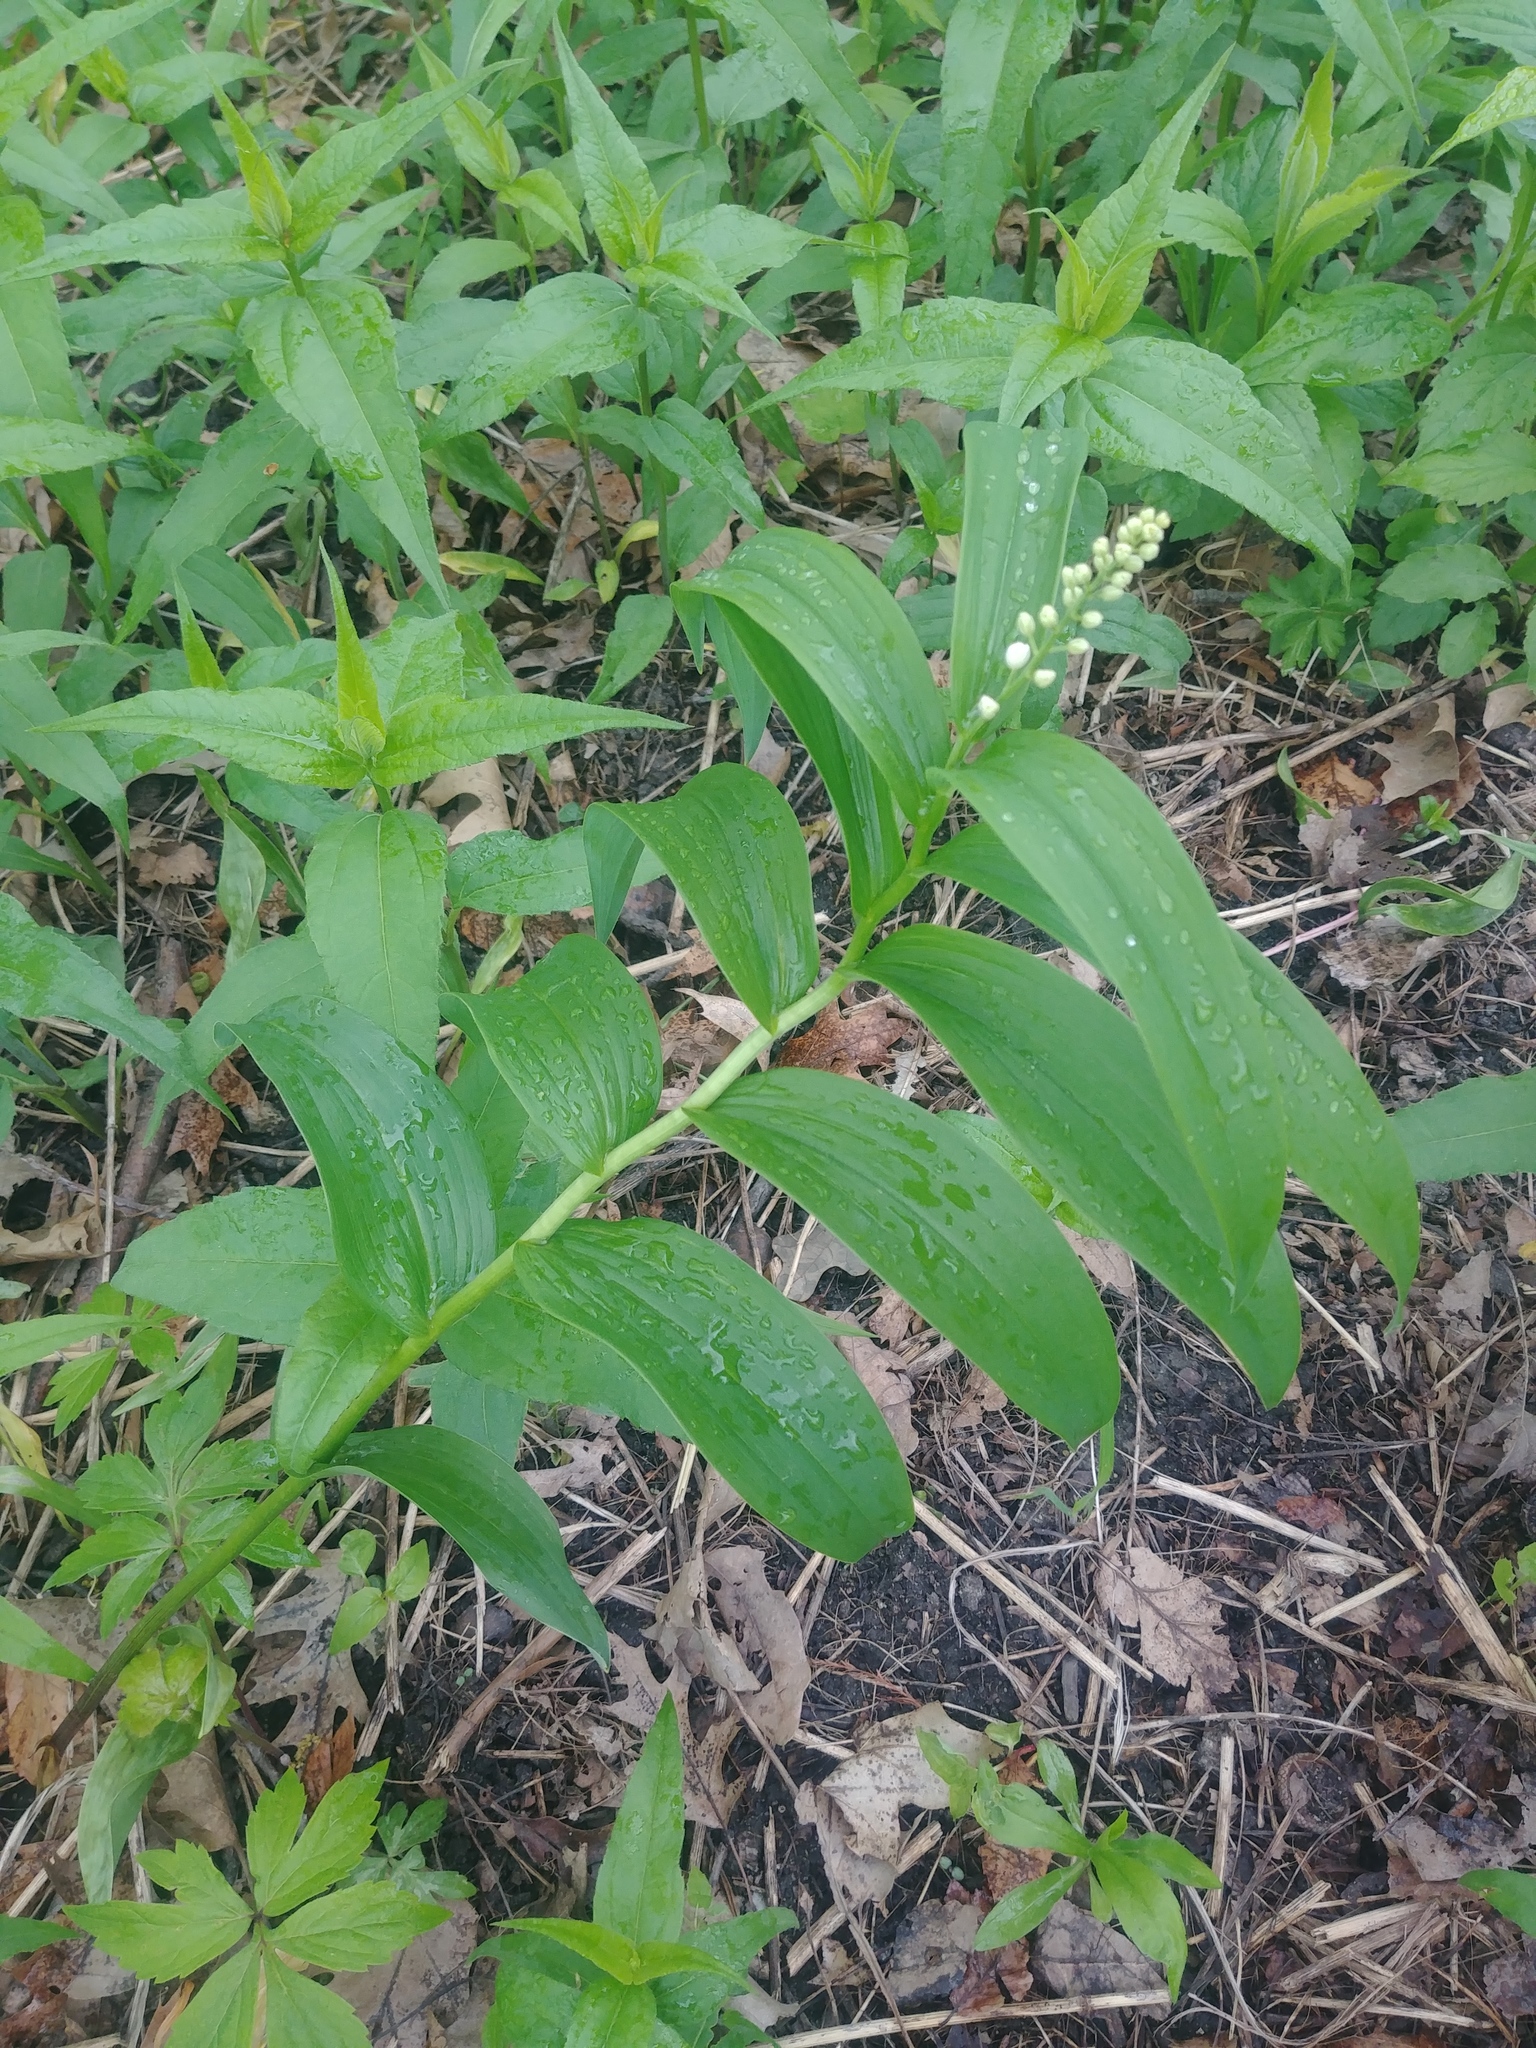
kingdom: Plantae
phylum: Tracheophyta
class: Liliopsida
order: Asparagales
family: Asparagaceae
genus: Maianthemum
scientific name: Maianthemum stellatum
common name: Little false solomon's seal
